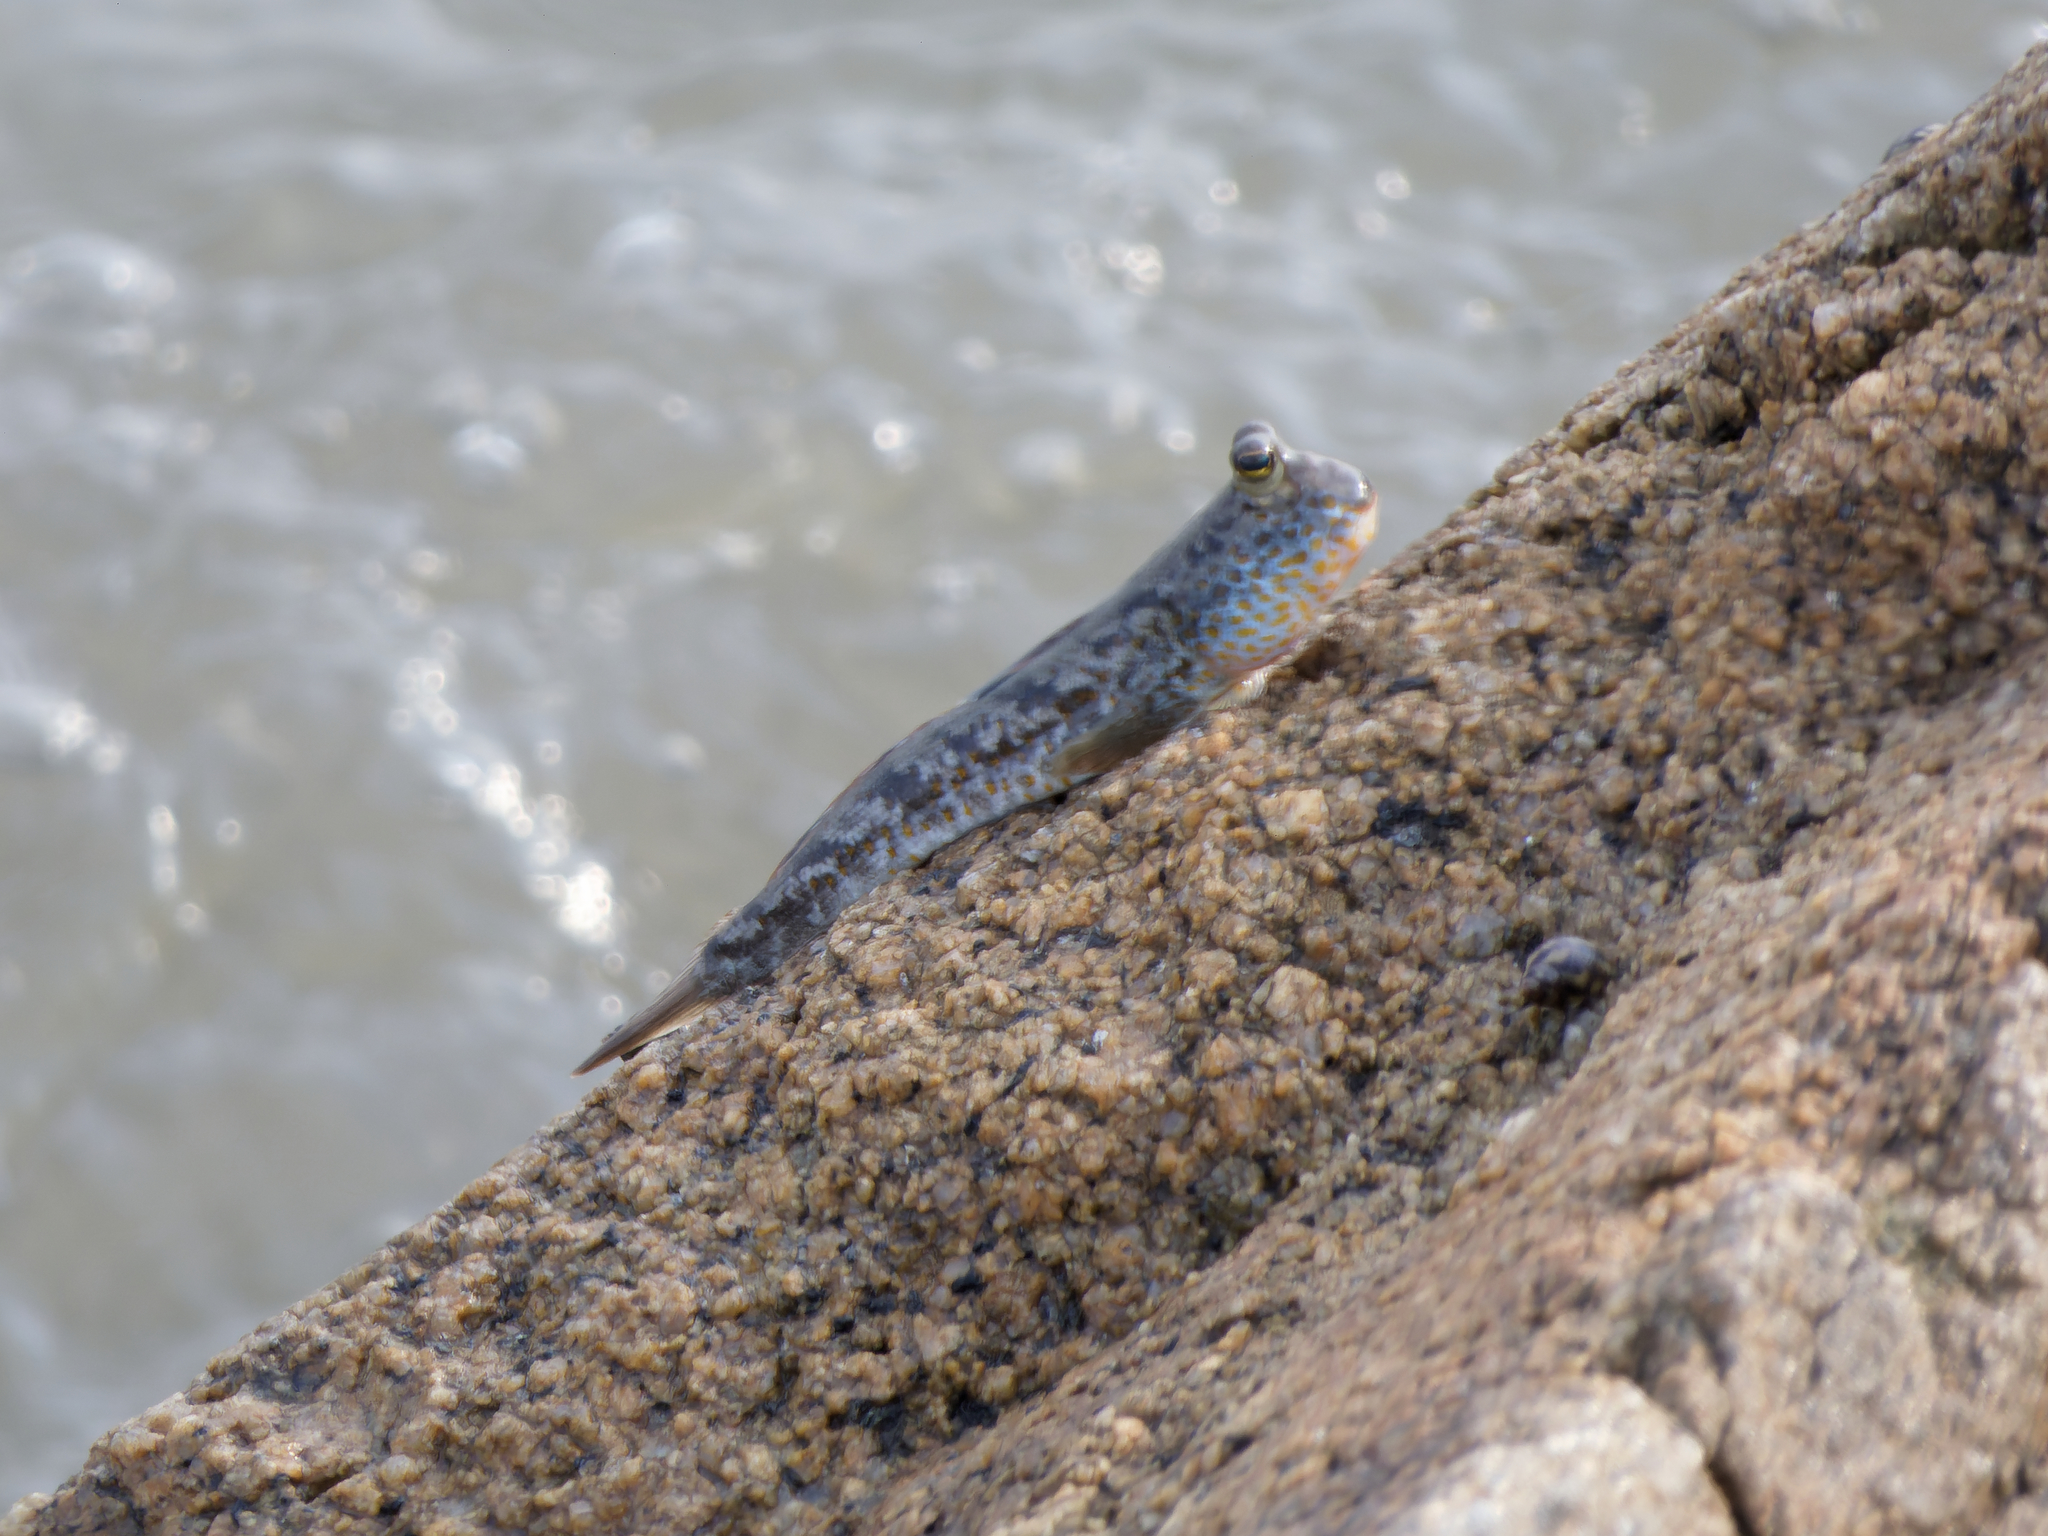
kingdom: Animalia
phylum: Chordata
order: Perciformes
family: Gobiidae
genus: Periophthalmus
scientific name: Periophthalmus chrysospilos
